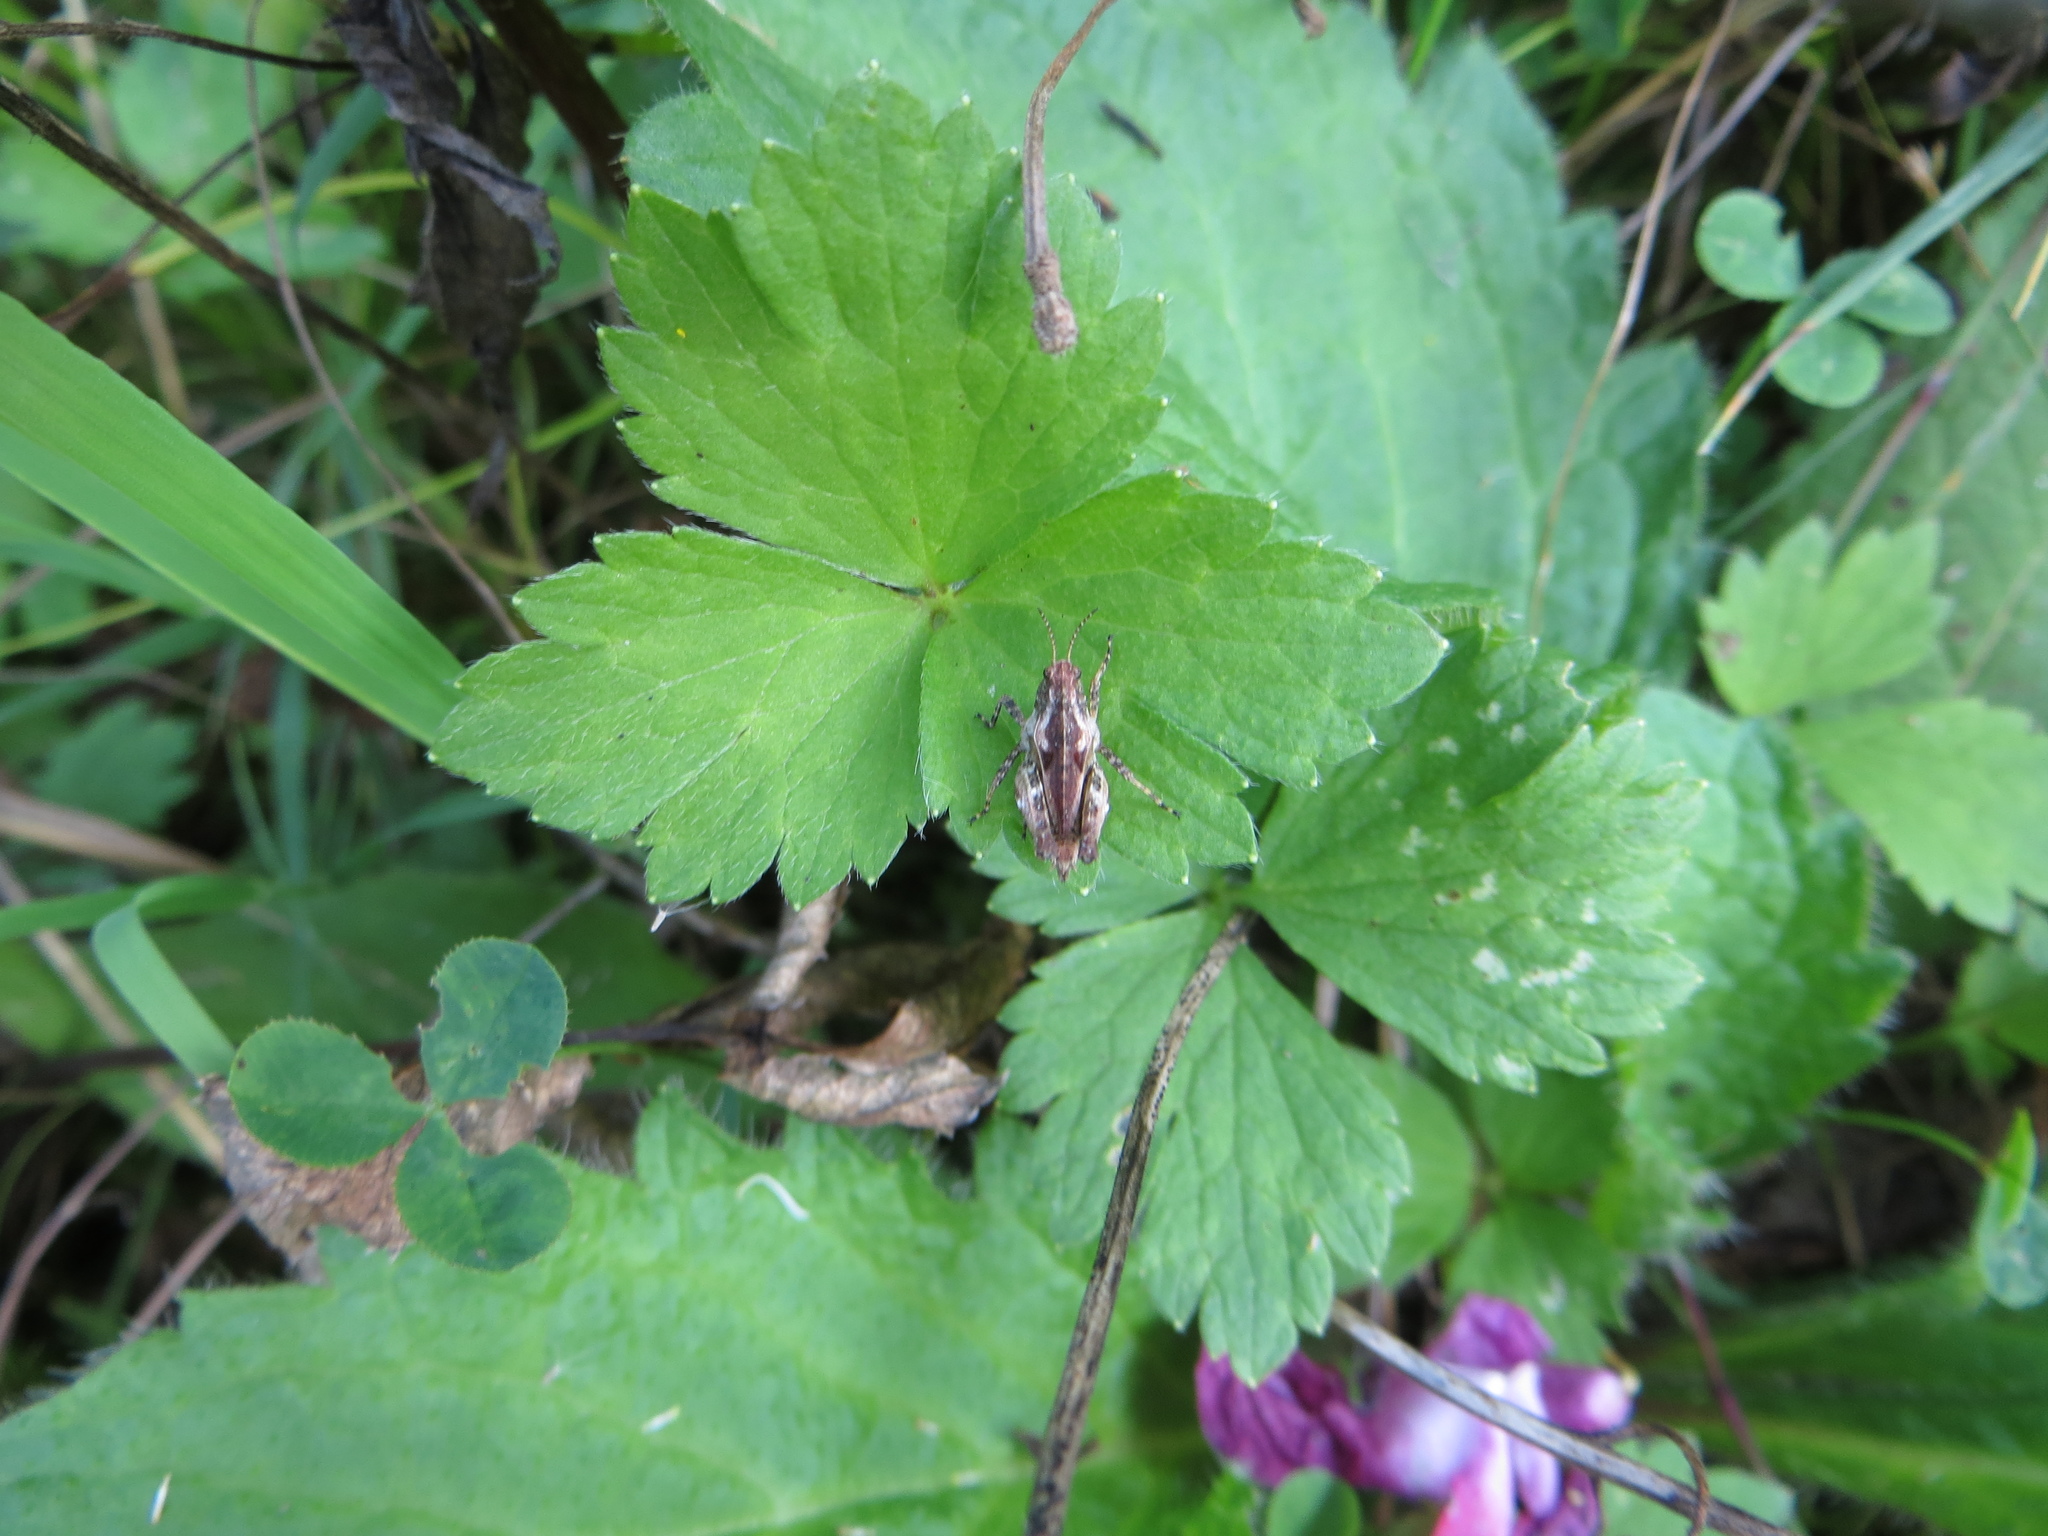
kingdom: Animalia
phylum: Arthropoda
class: Insecta
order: Orthoptera
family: Tetrigidae
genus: Tetrix
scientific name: Tetrix tenuicornis
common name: Long-horned groundhopper
